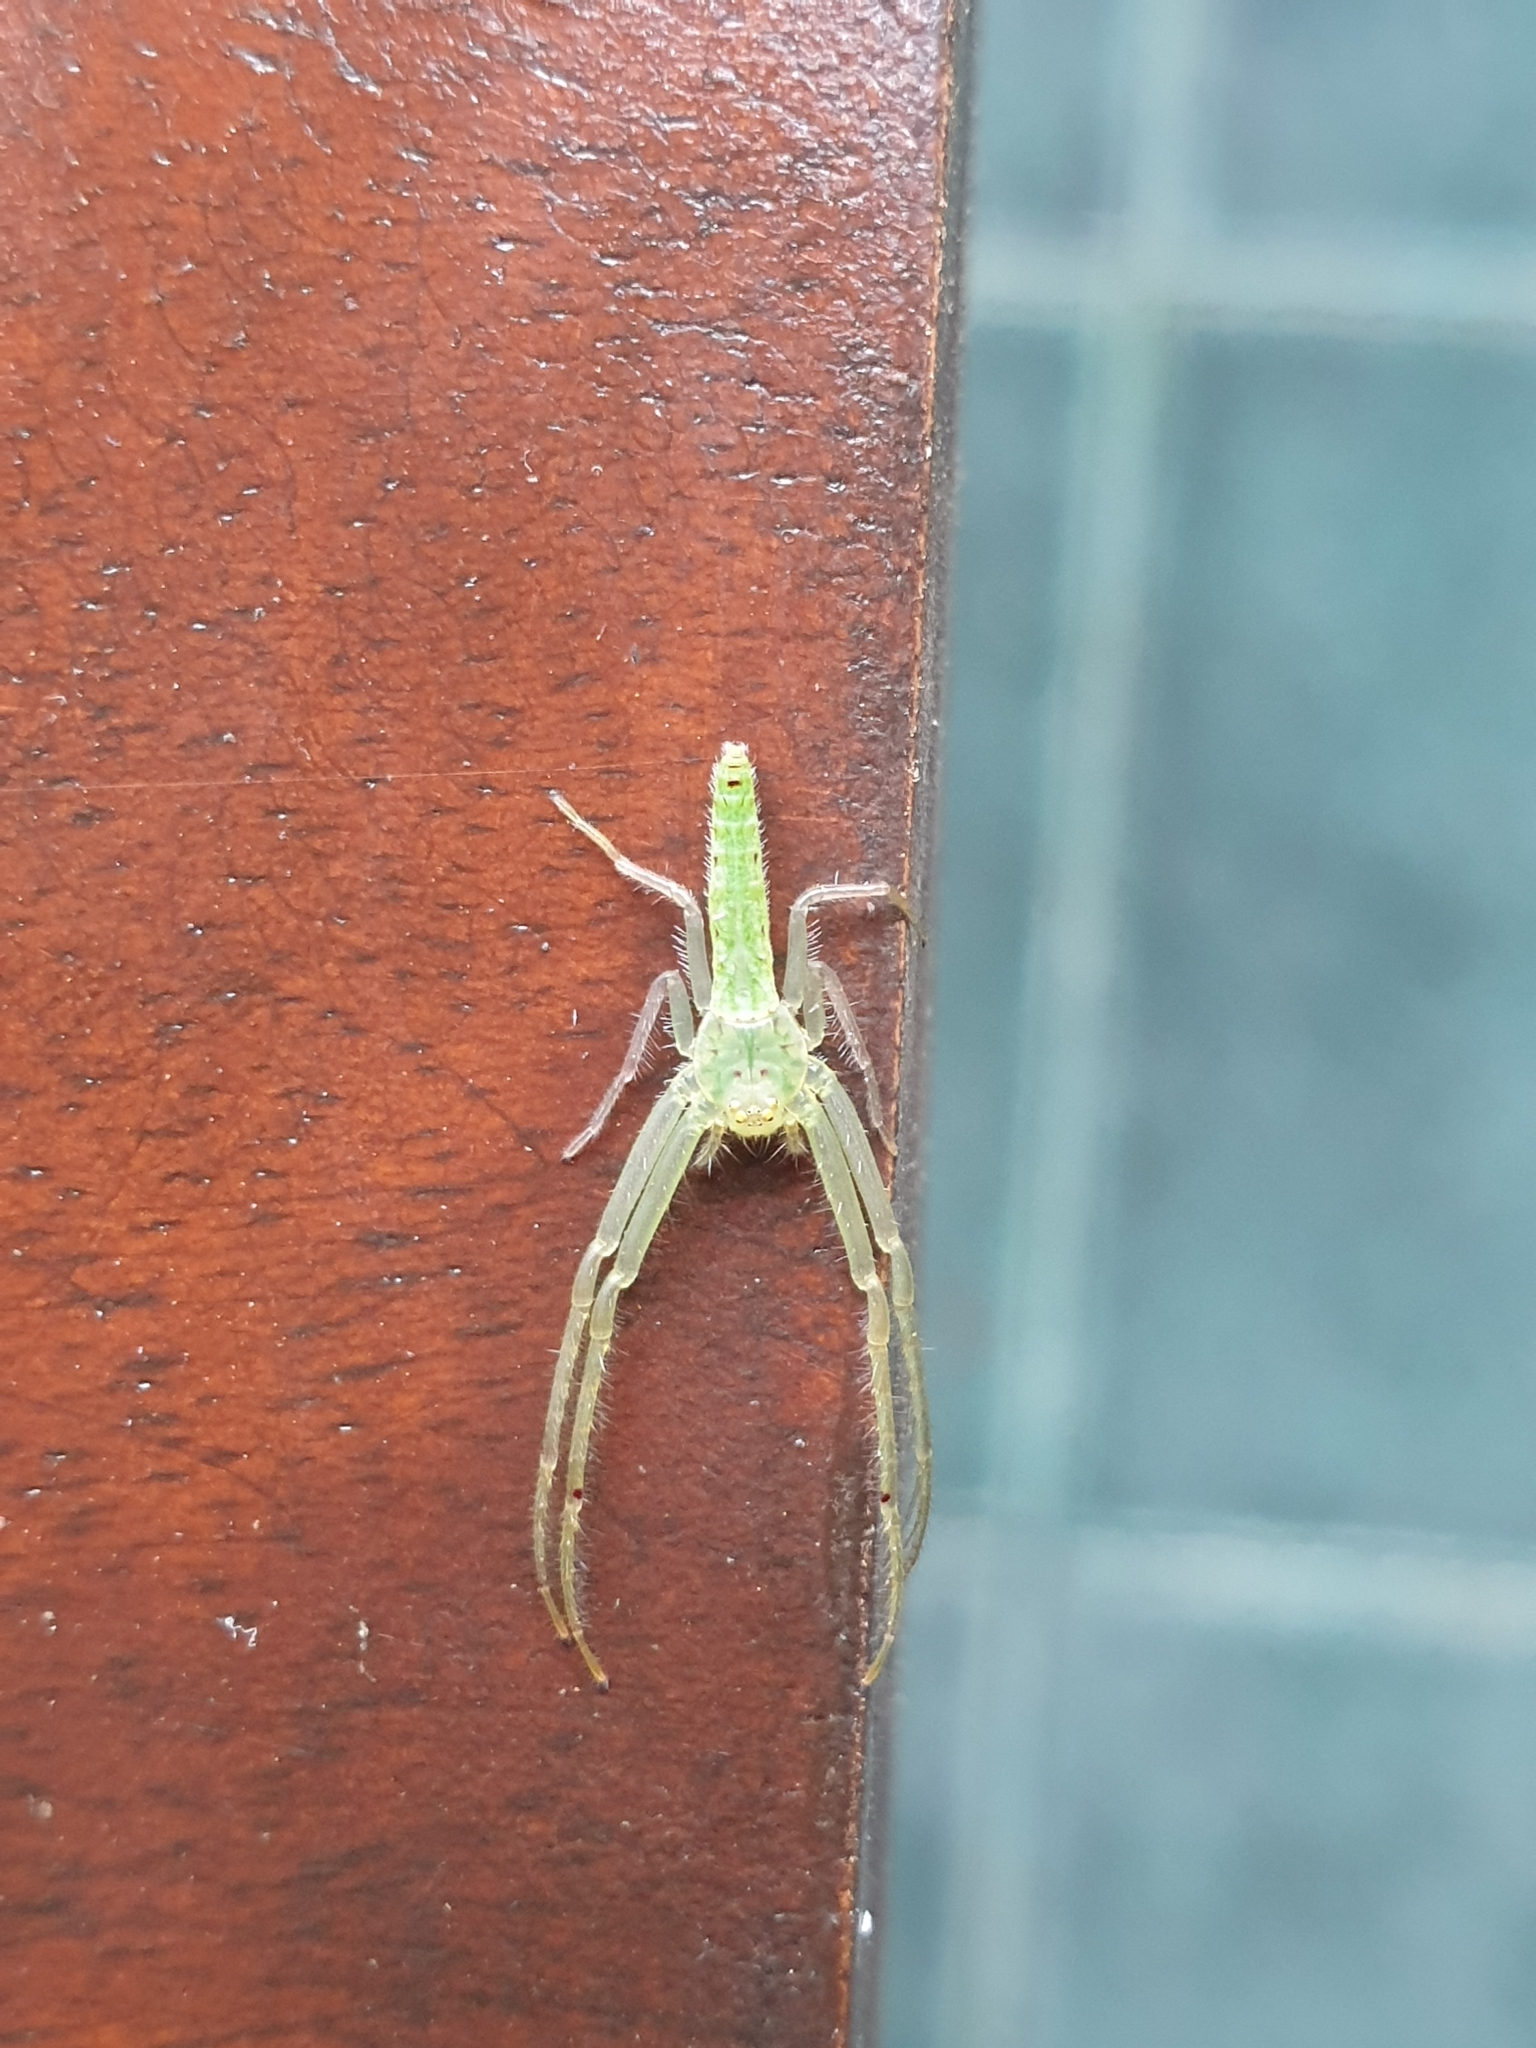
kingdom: Animalia
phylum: Arthropoda
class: Arachnida
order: Araneae
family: Thomisidae
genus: Oxytate
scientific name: Oxytate subvirens
